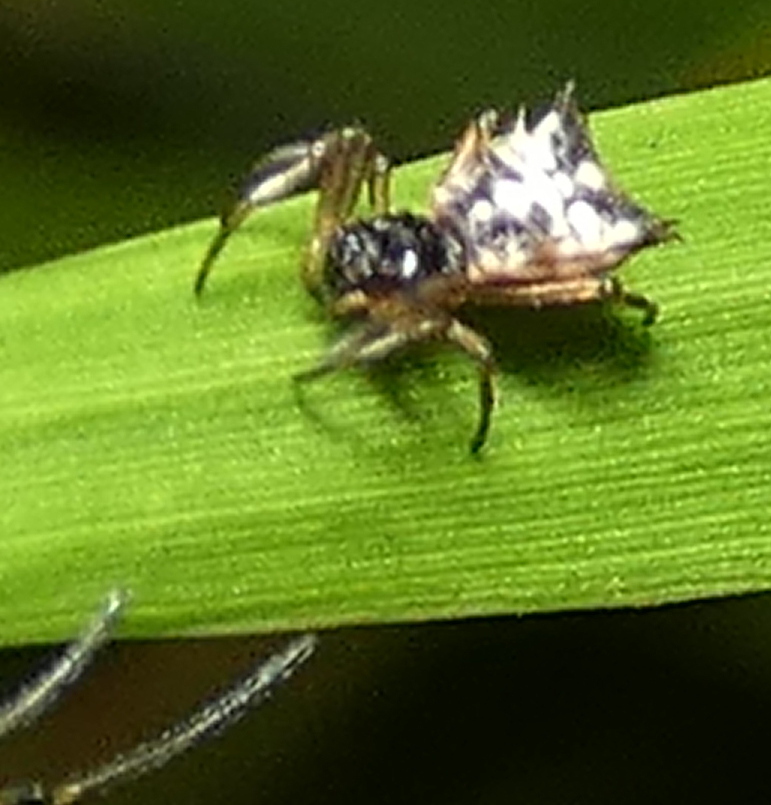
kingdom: Animalia
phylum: Arthropoda
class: Arachnida
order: Araneae
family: Araneidae
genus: Micrathena
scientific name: Micrathena picta
